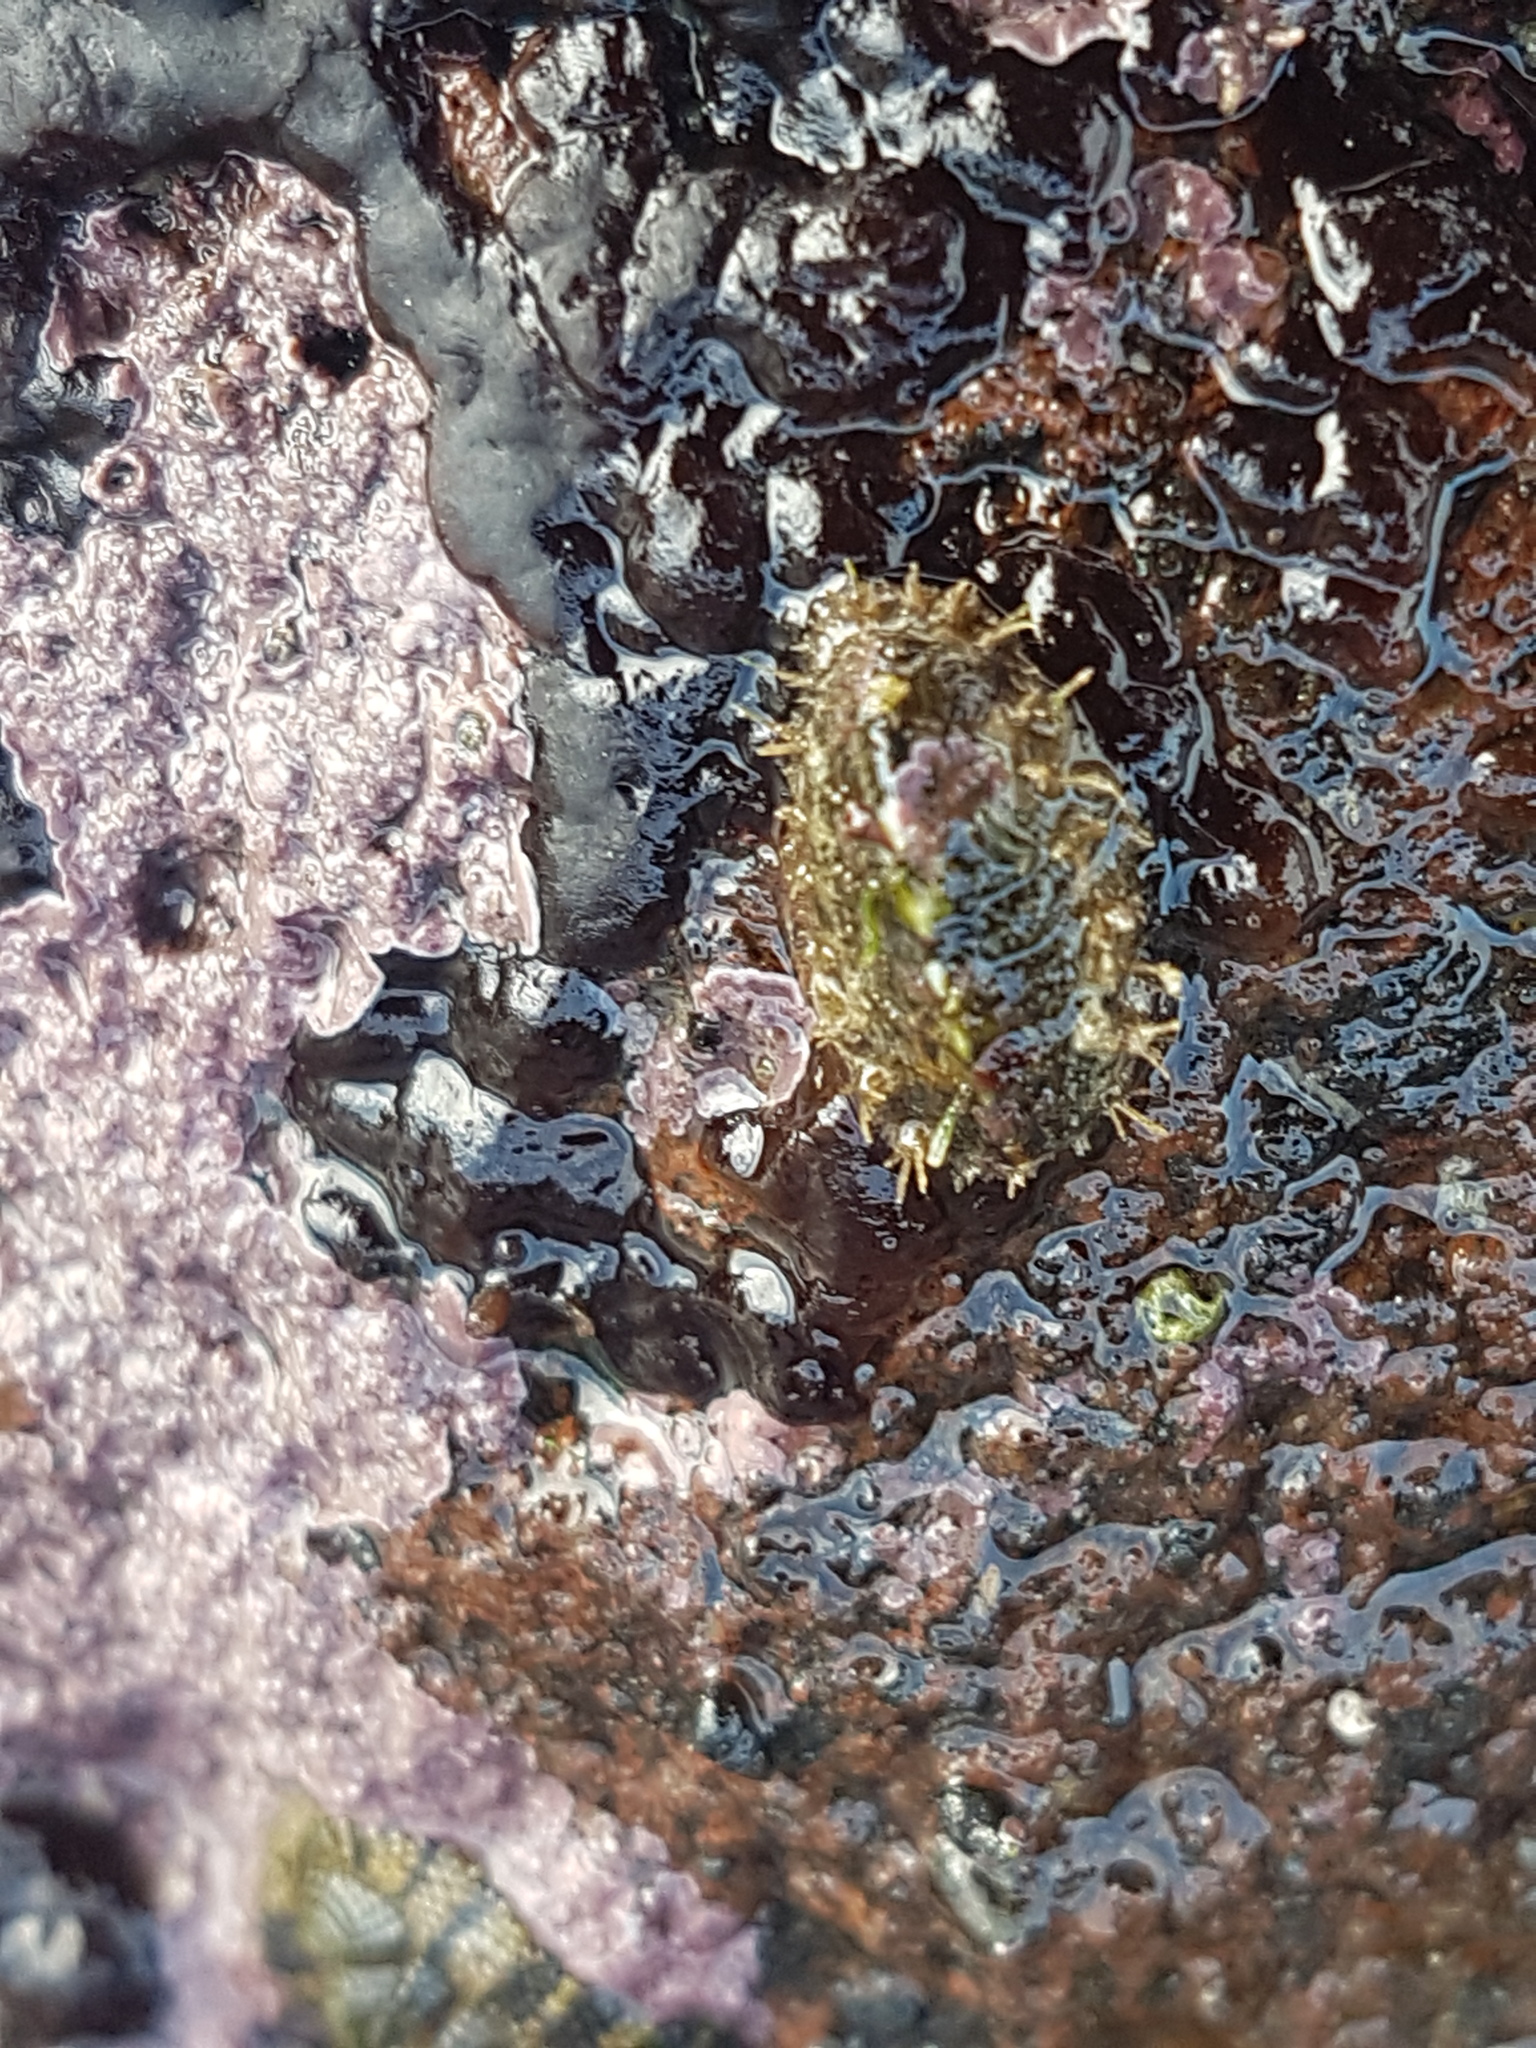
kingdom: Animalia
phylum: Mollusca
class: Polyplacophora
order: Chitonida
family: Acanthochitonidae
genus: Acanthochitona
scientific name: Acanthochitona zelandica
